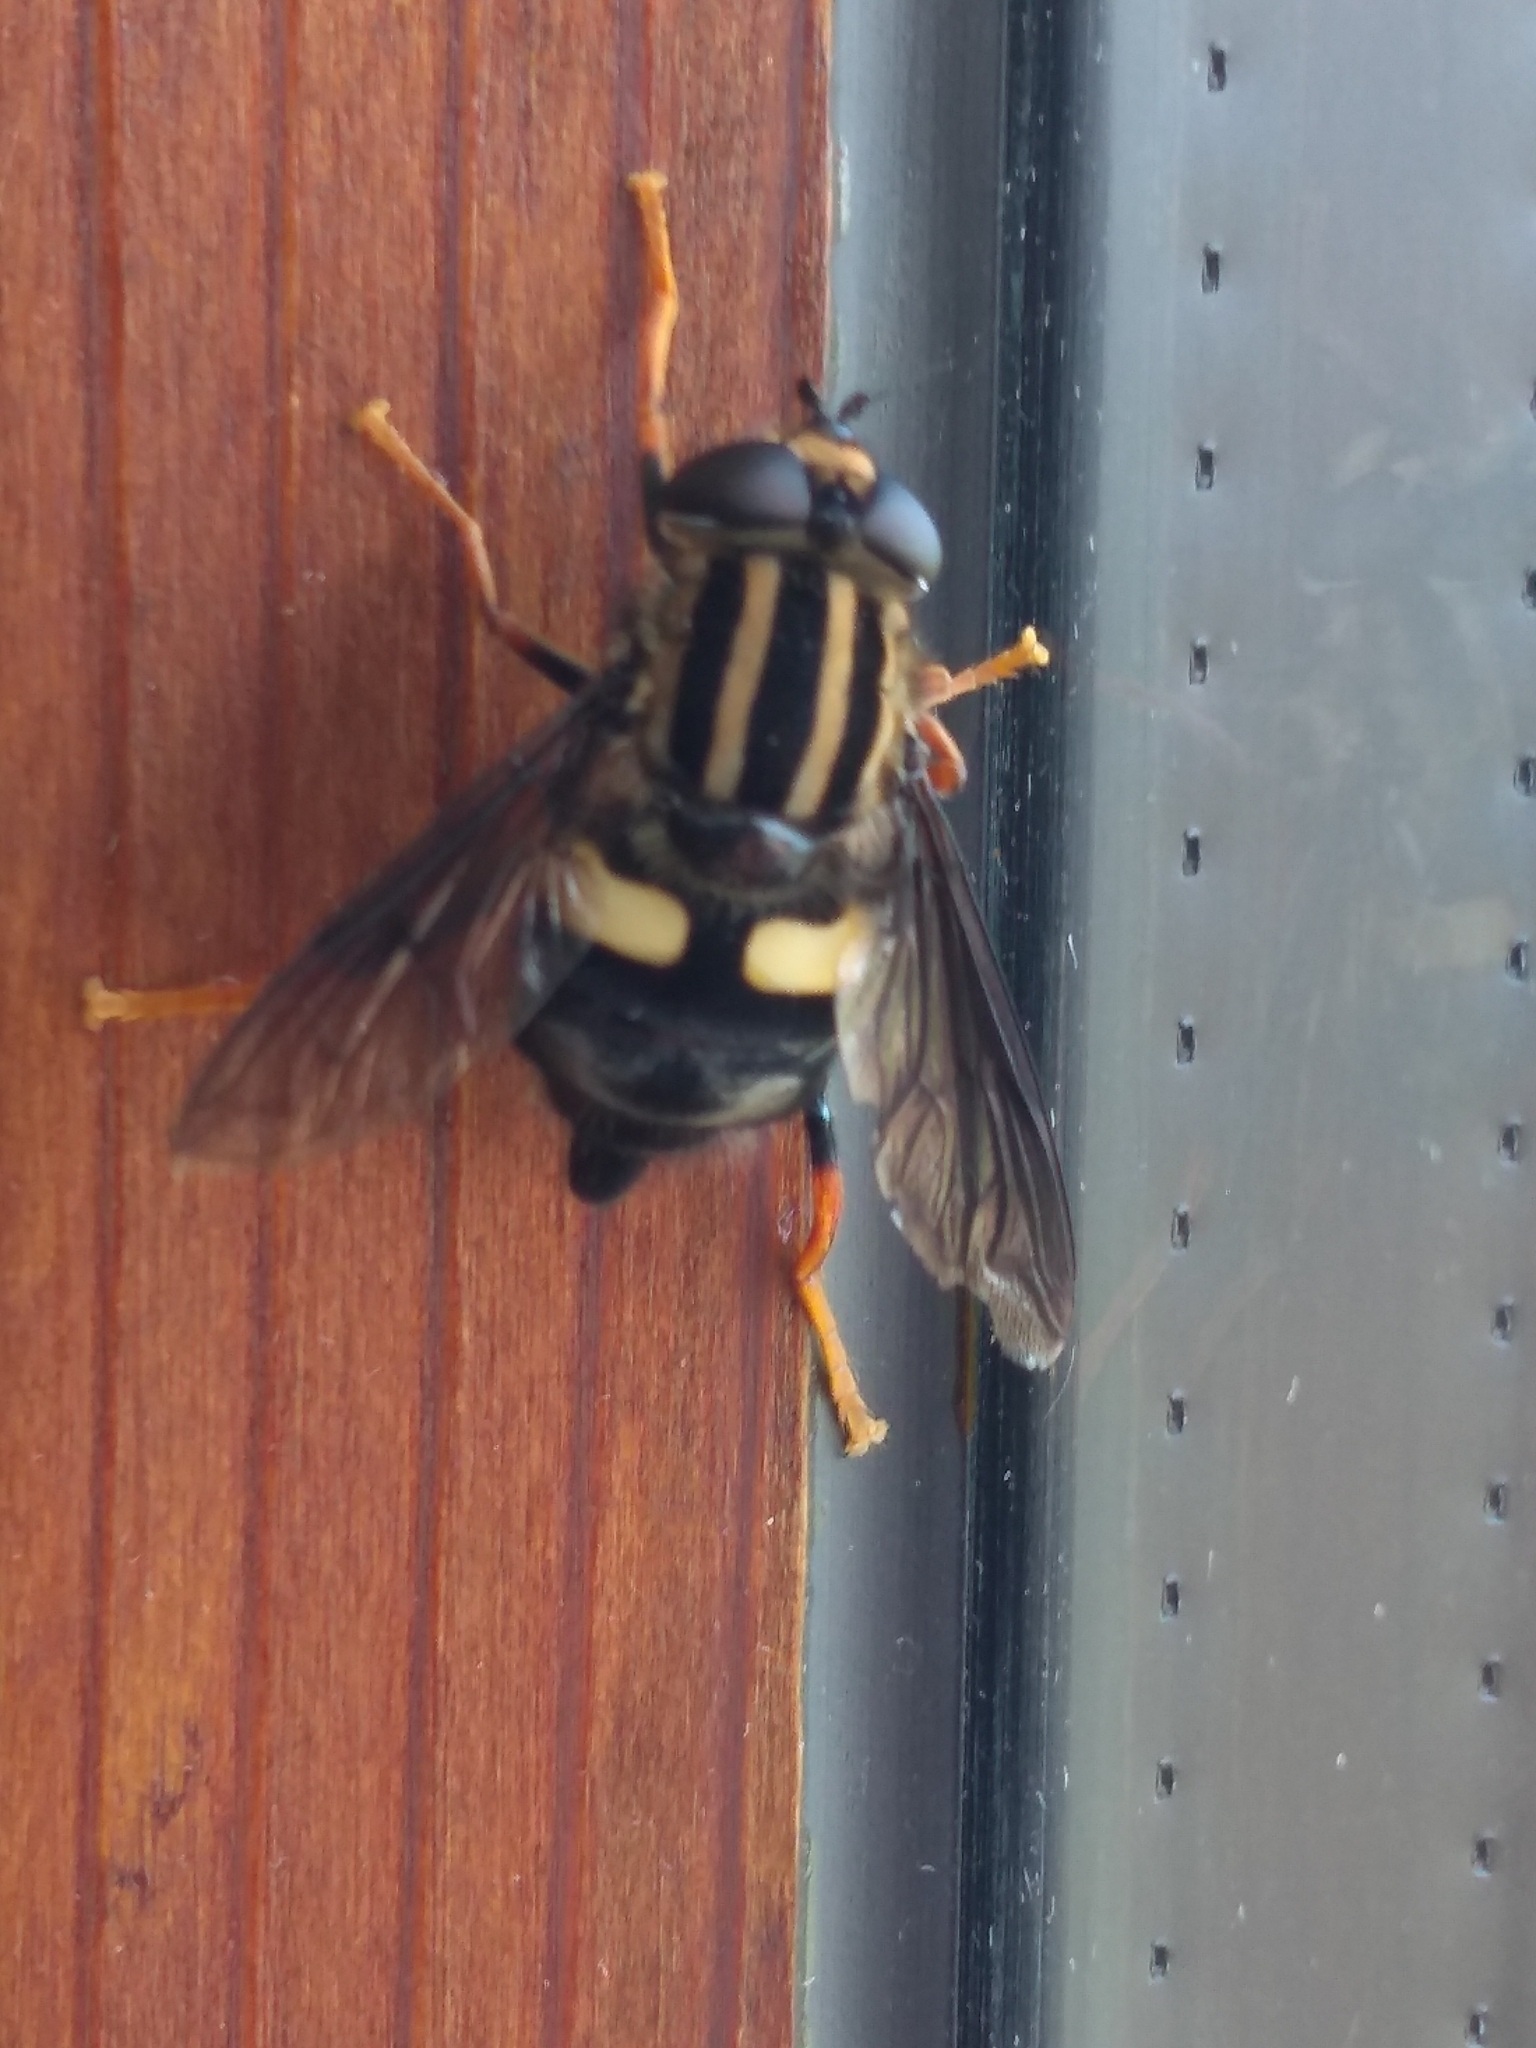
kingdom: Animalia
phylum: Arthropoda
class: Insecta
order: Diptera
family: Syrphidae
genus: Helophilus
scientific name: Helophilus seelandicus
